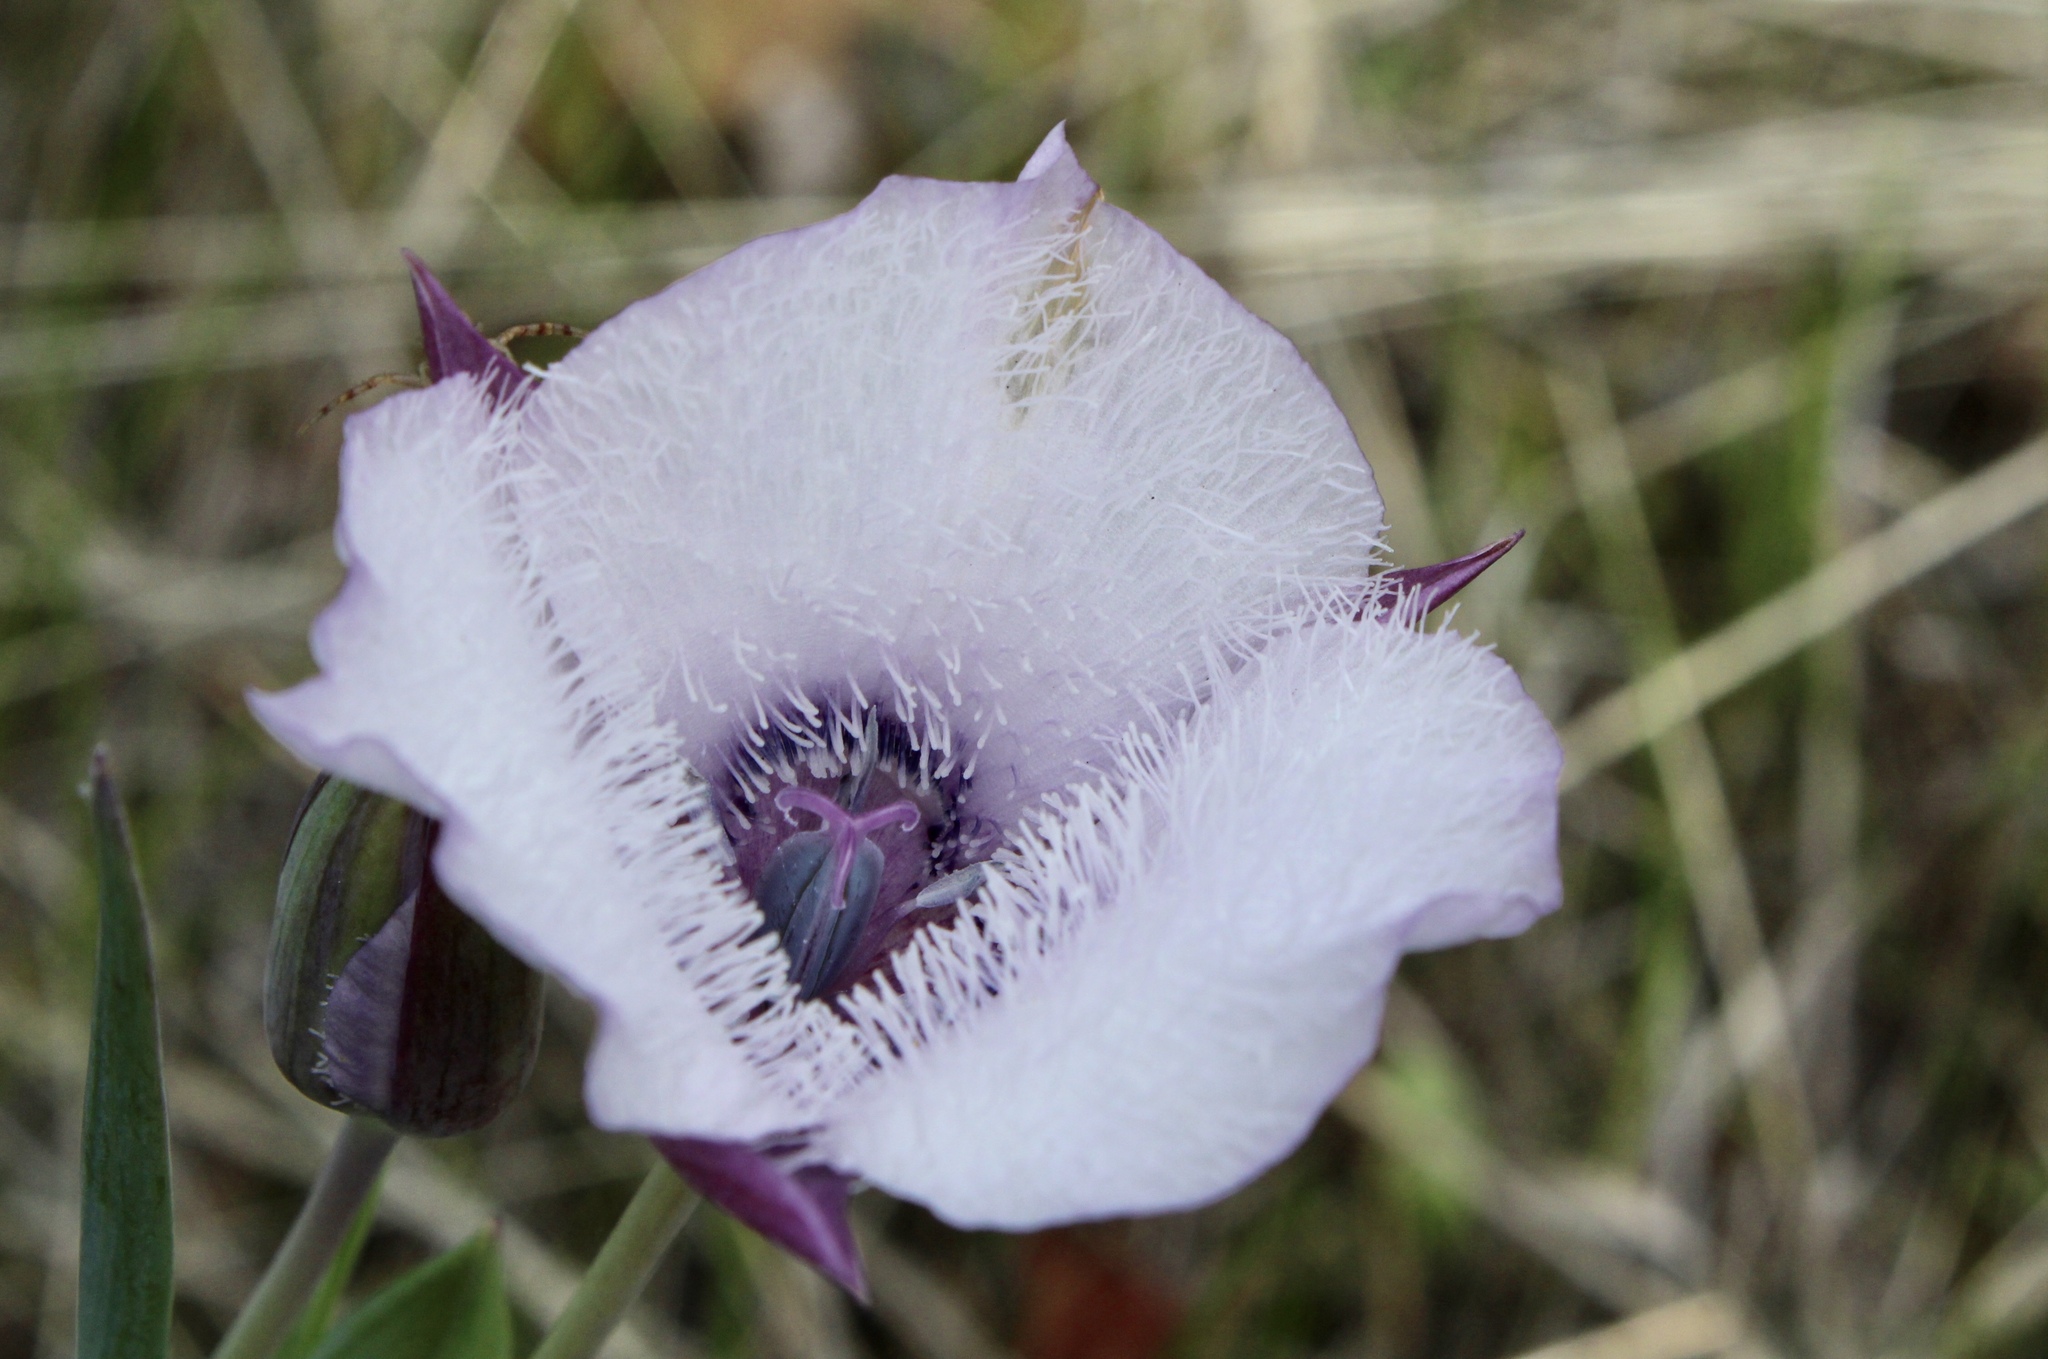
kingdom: Plantae
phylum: Tracheophyta
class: Liliopsida
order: Liliales
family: Liliaceae
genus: Calochortus
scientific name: Calochortus tolmiei
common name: Pussy-ears
